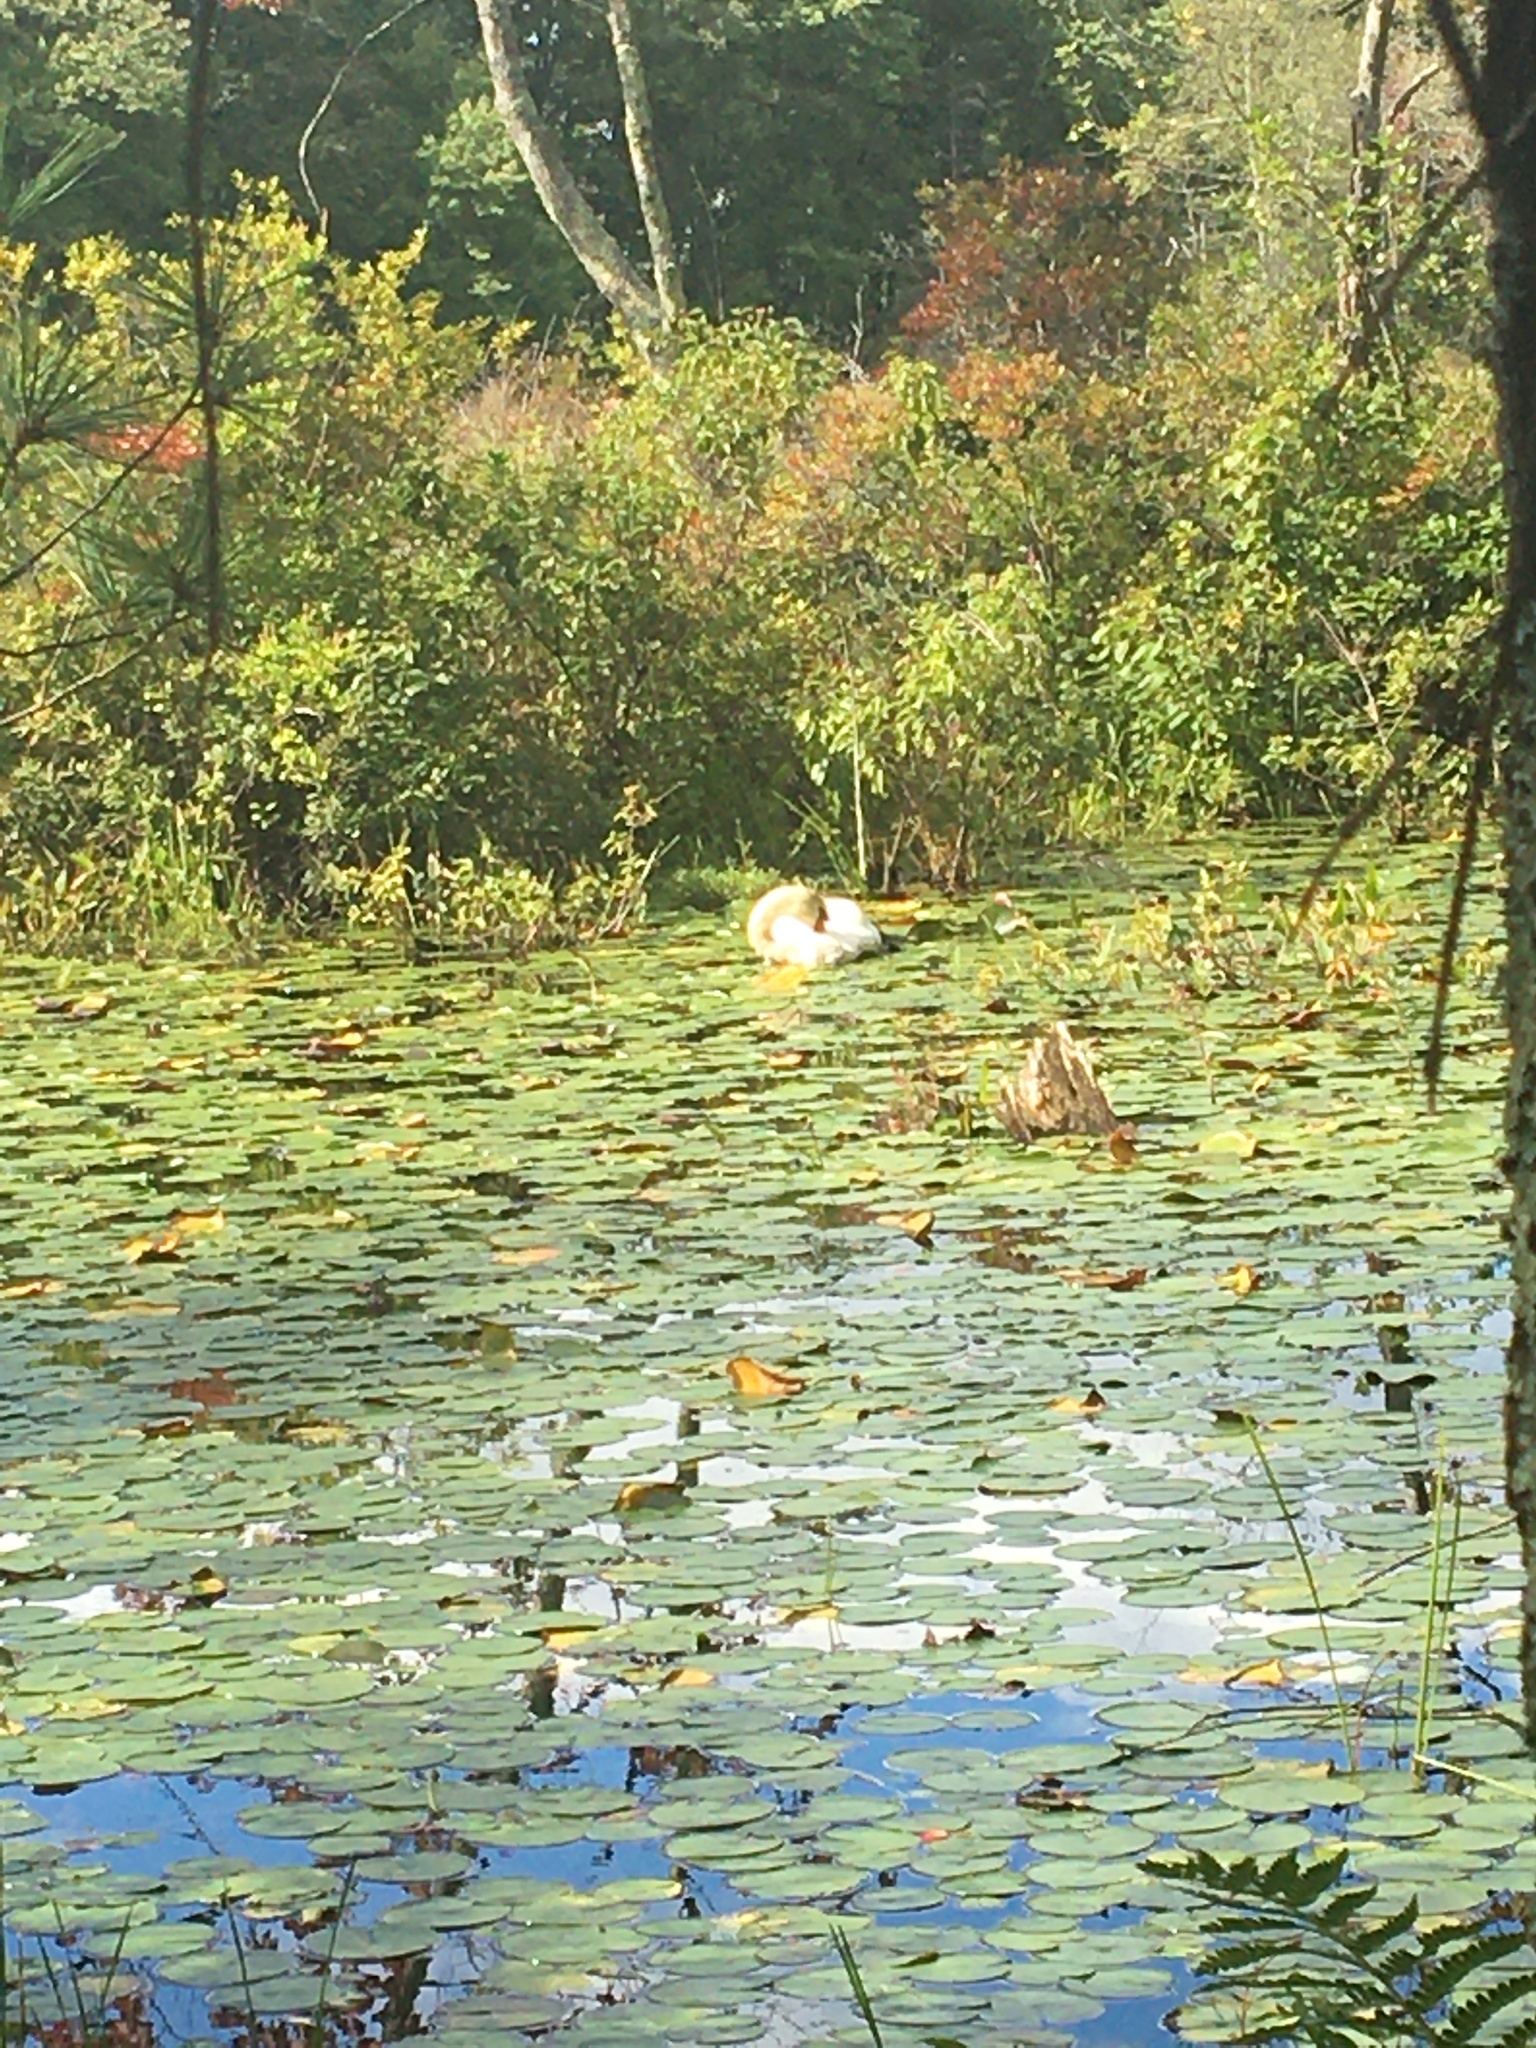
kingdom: Animalia
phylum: Chordata
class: Aves
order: Anseriformes
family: Anatidae
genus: Cygnus
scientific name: Cygnus olor
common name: Mute swan
